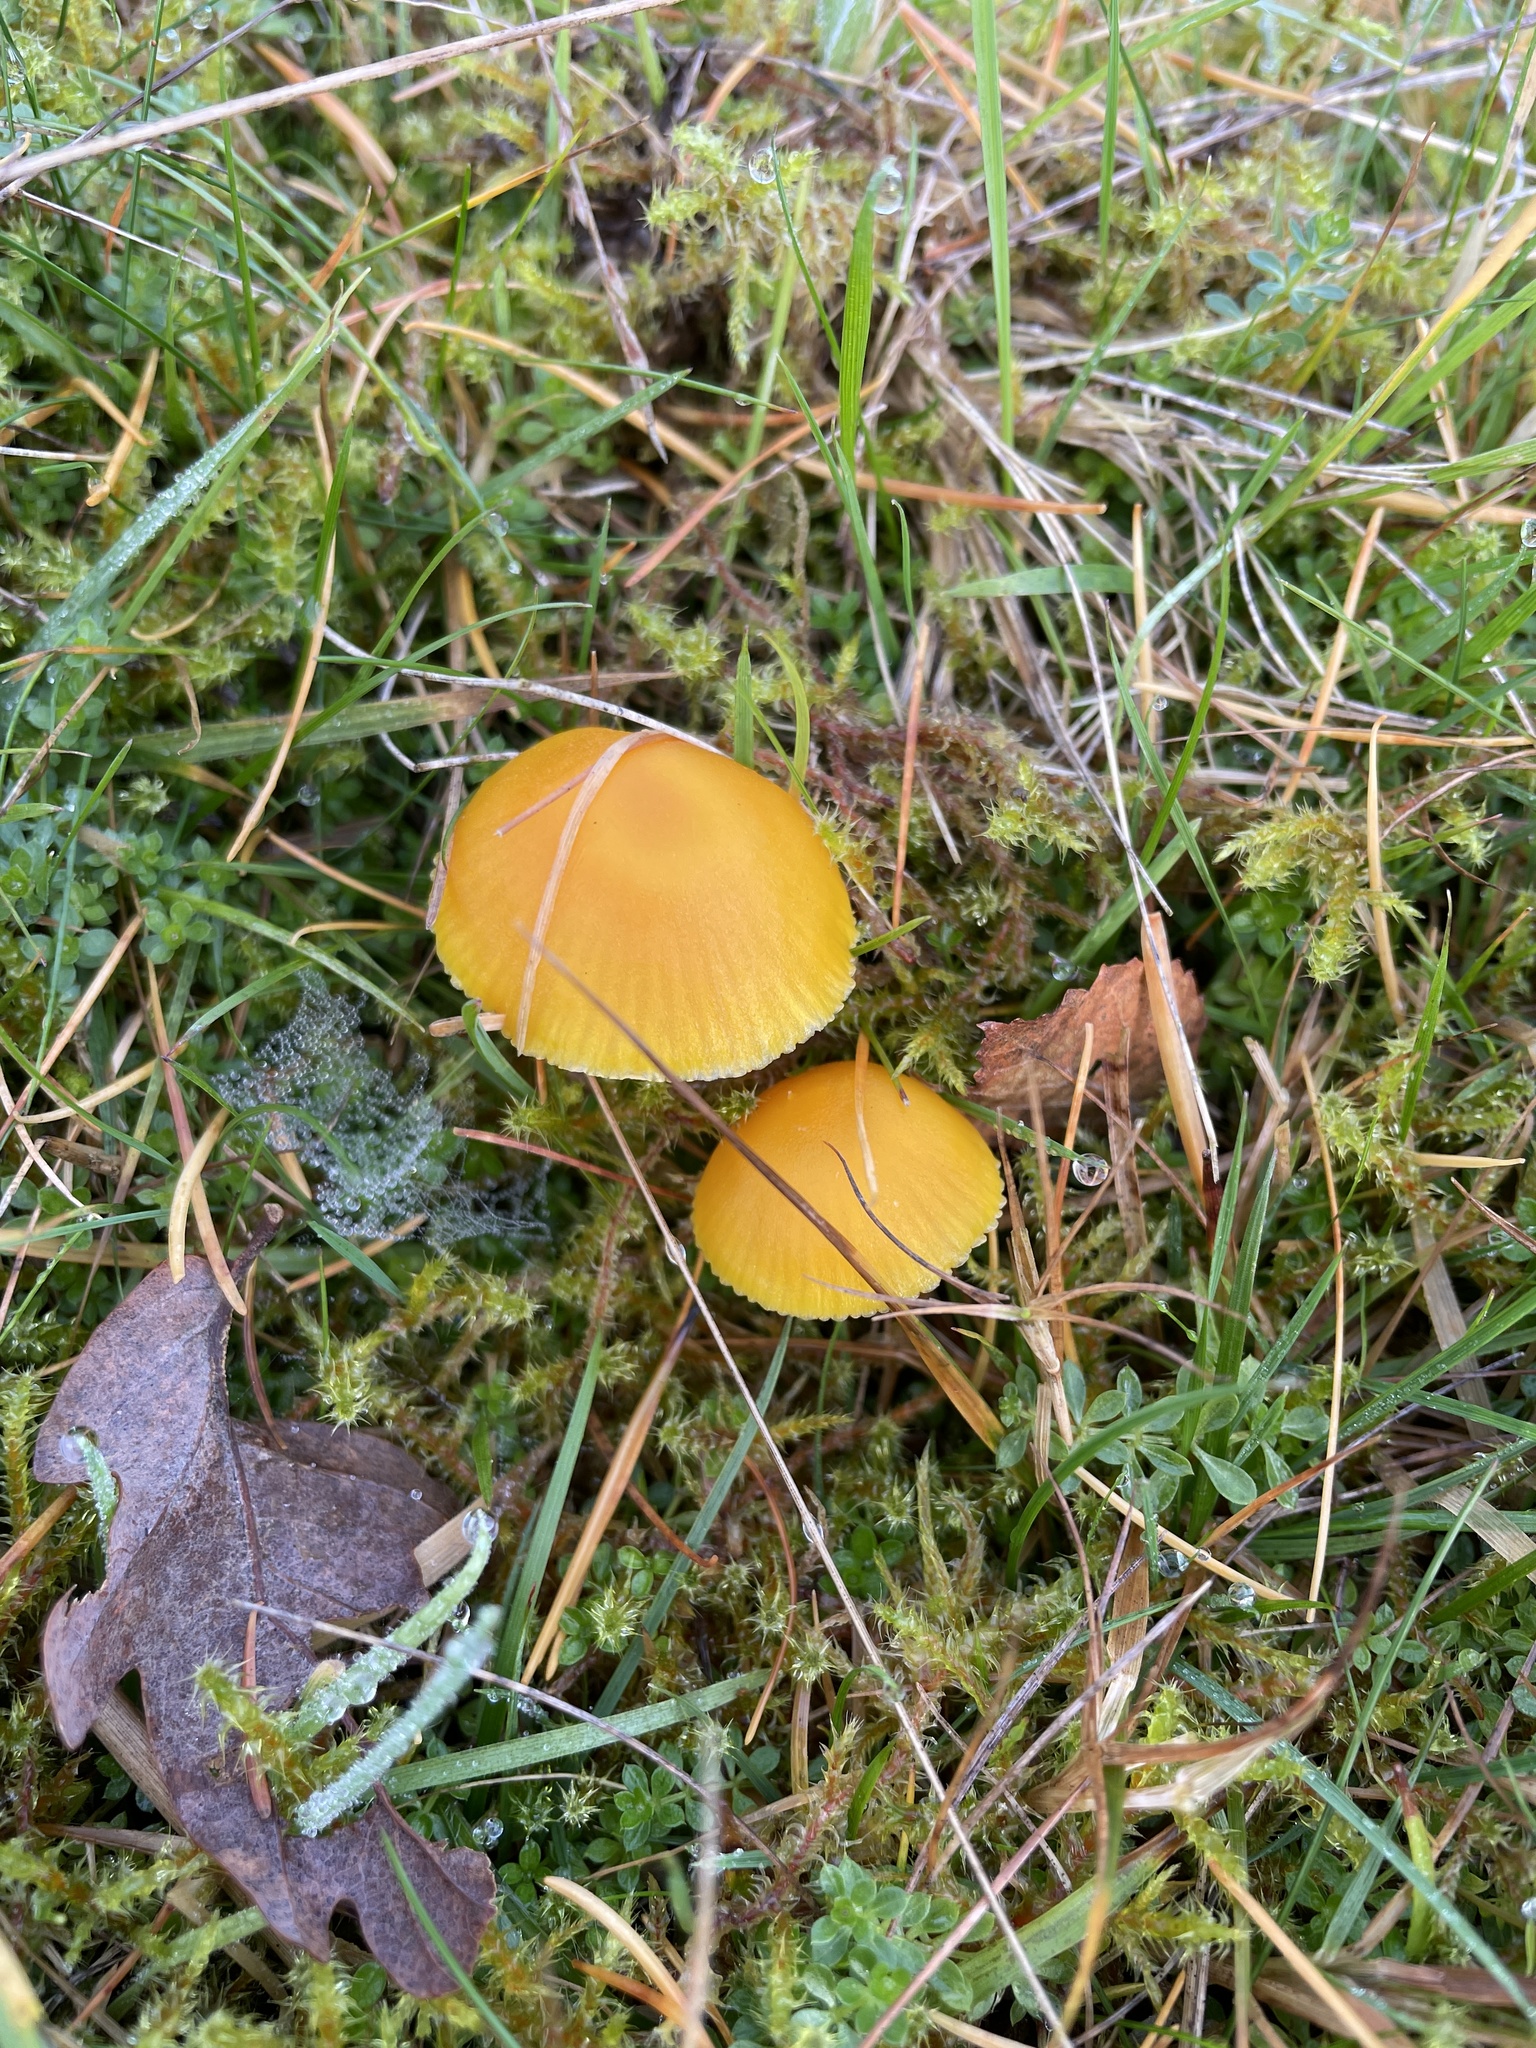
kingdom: Fungi
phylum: Basidiomycota
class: Agaricomycetes
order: Agaricales
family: Hygrophoraceae
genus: Hygrocybe
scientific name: Hygrocybe ceracea
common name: Butter waxcap
